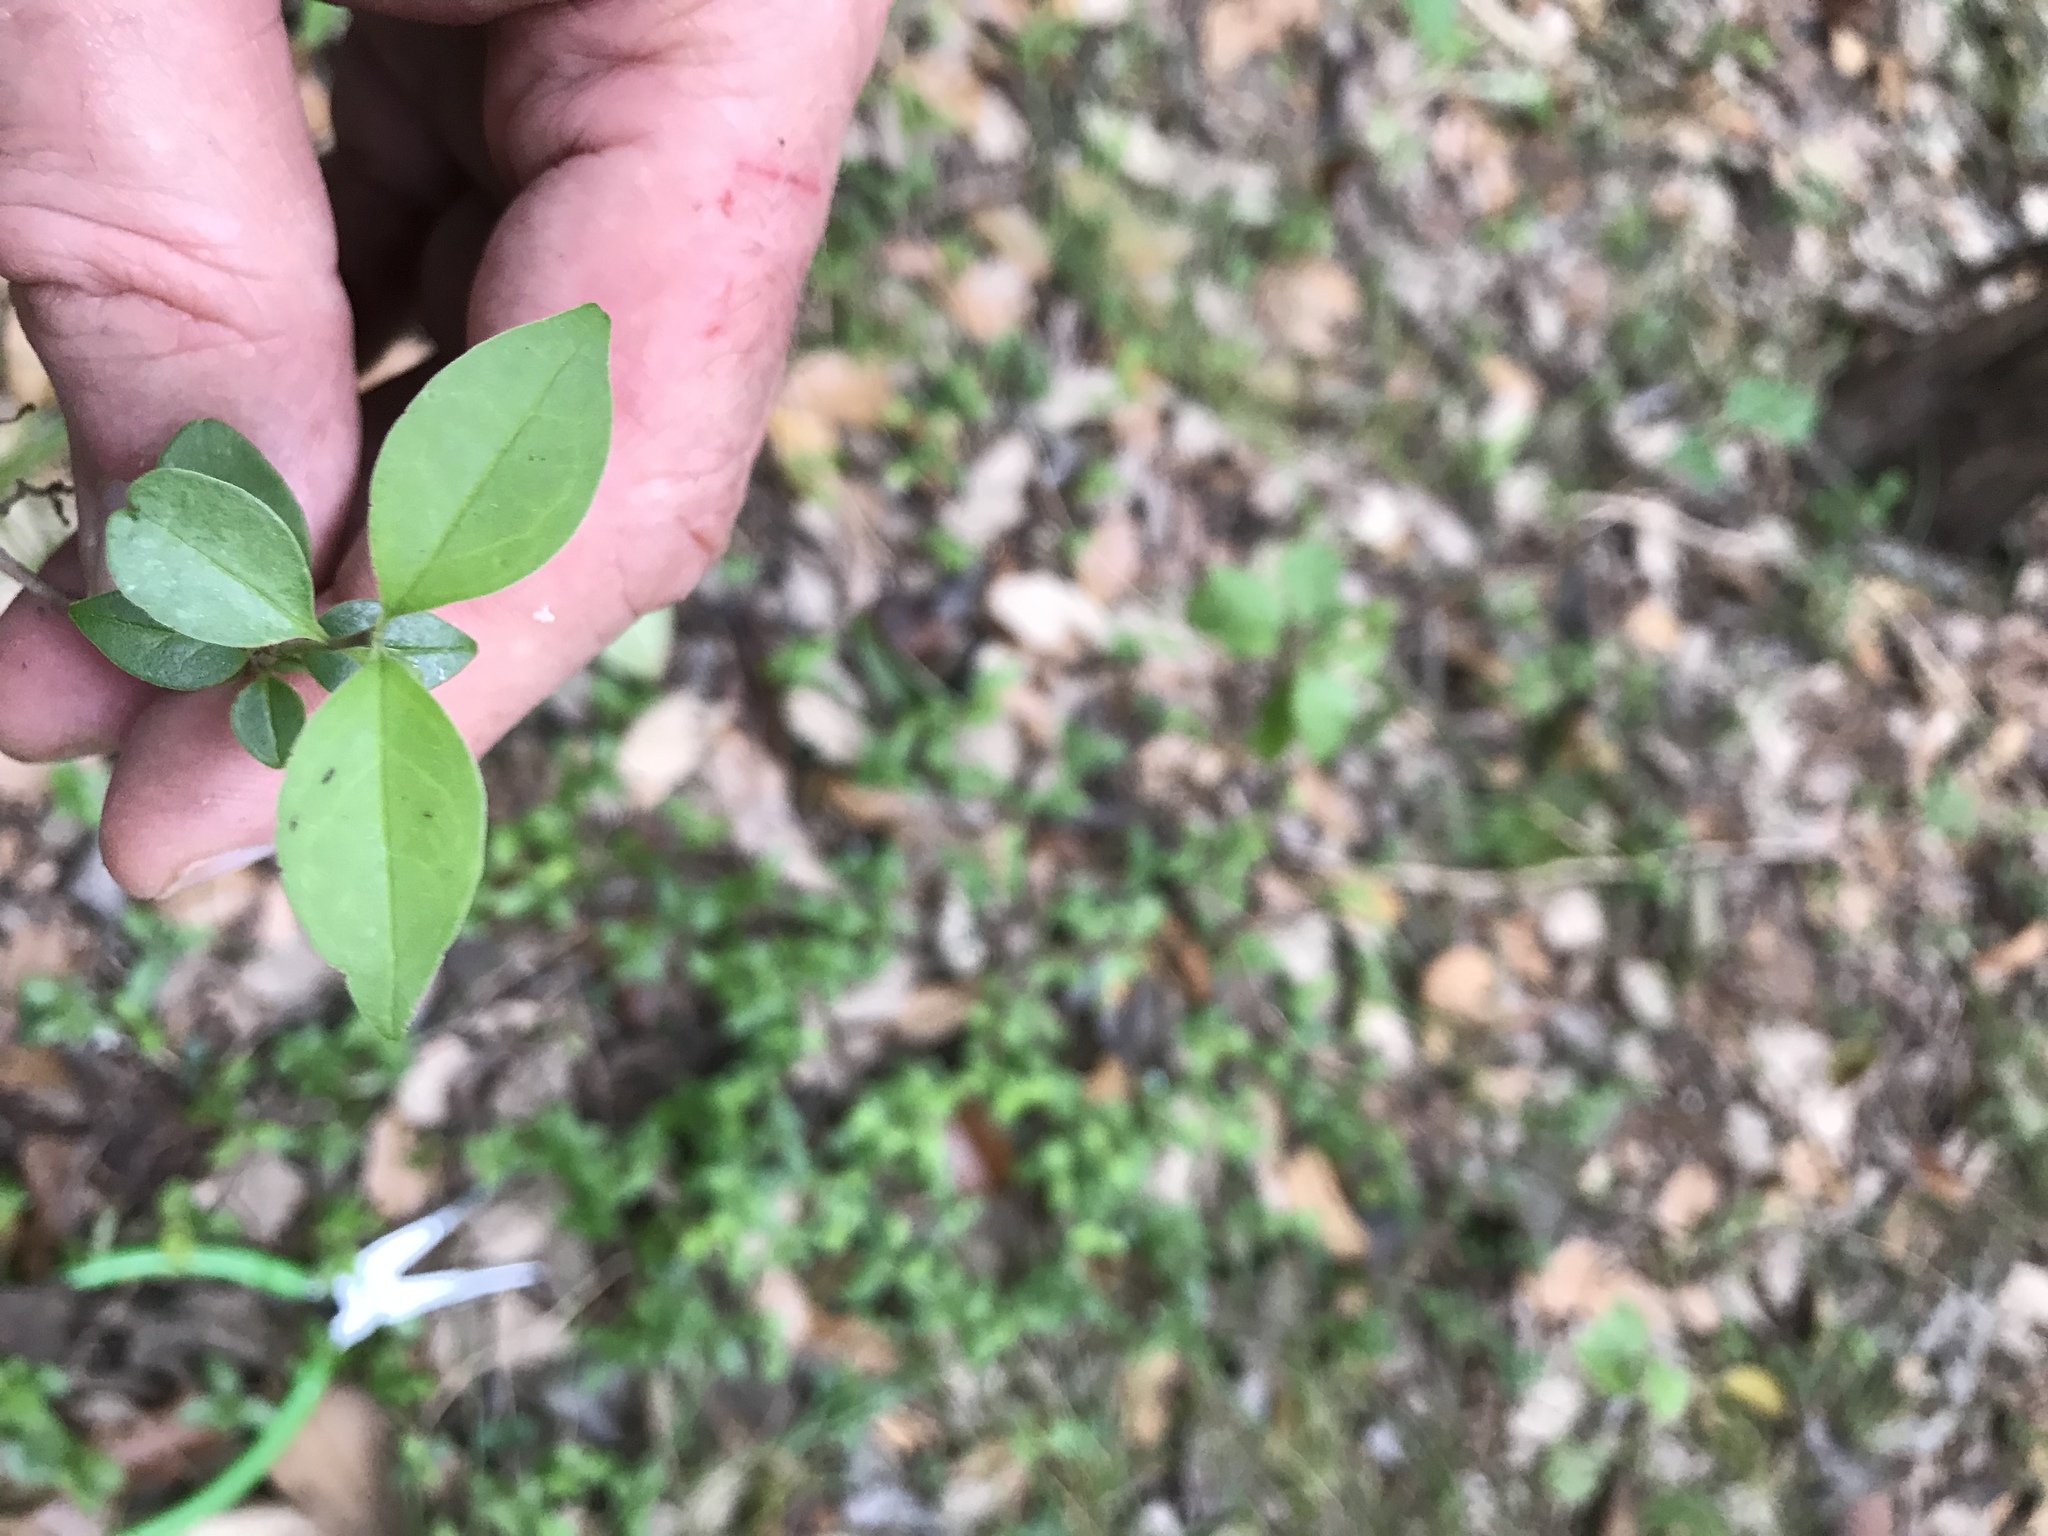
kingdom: Plantae
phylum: Tracheophyta
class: Magnoliopsida
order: Lamiales
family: Oleaceae
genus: Ligustrum
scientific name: Ligustrum lucidum
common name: Glossy privet
